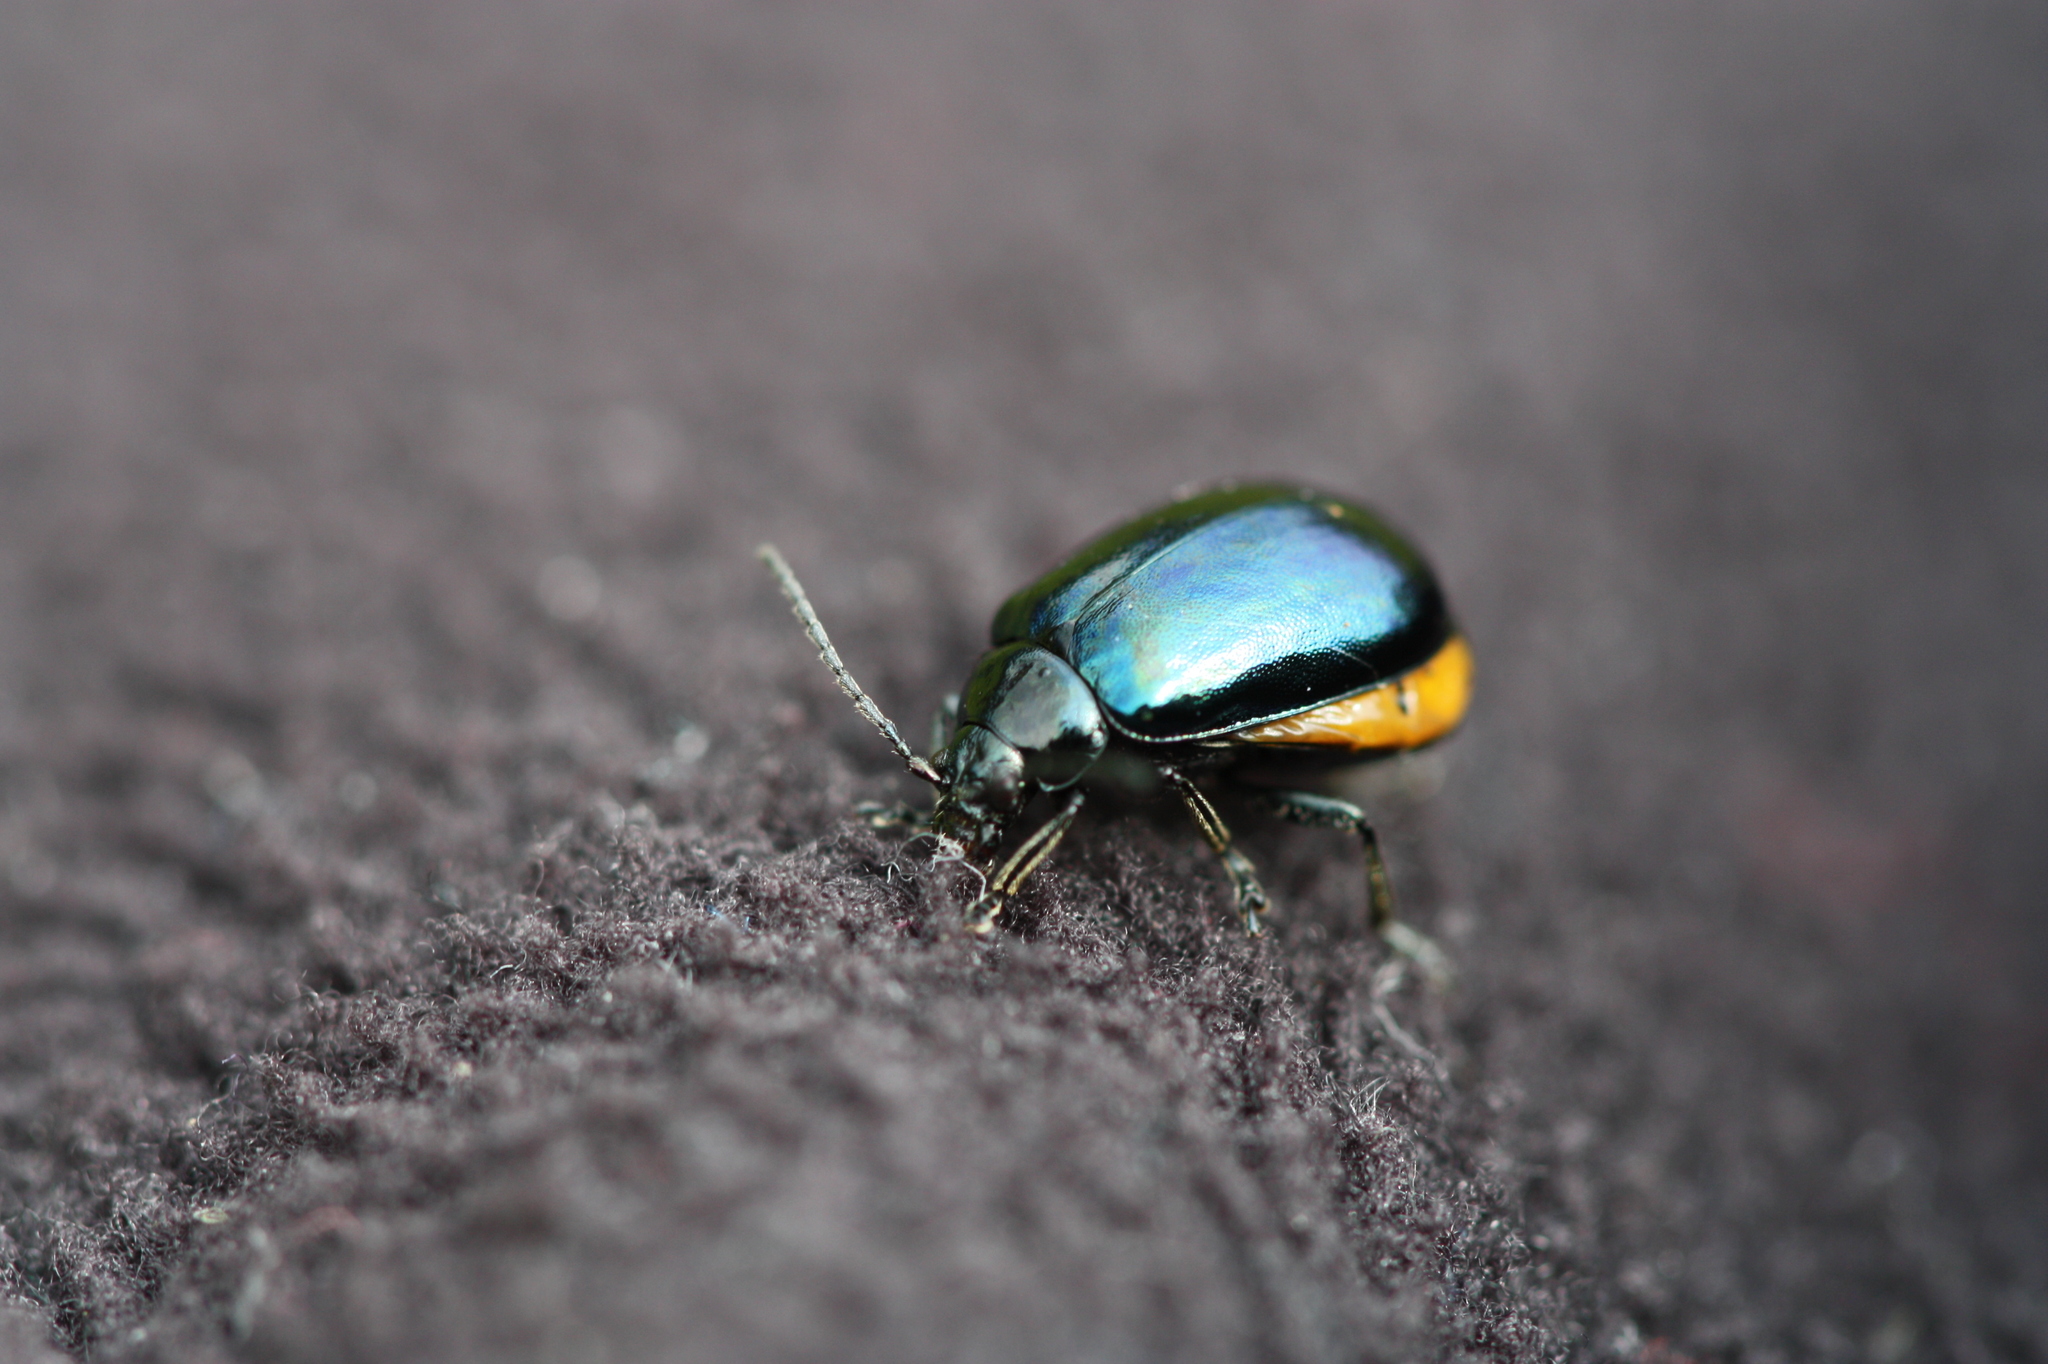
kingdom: Animalia
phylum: Arthropoda
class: Insecta
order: Coleoptera
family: Chrysomelidae
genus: Agelastica
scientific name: Agelastica alni
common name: Alder leaf beetle
